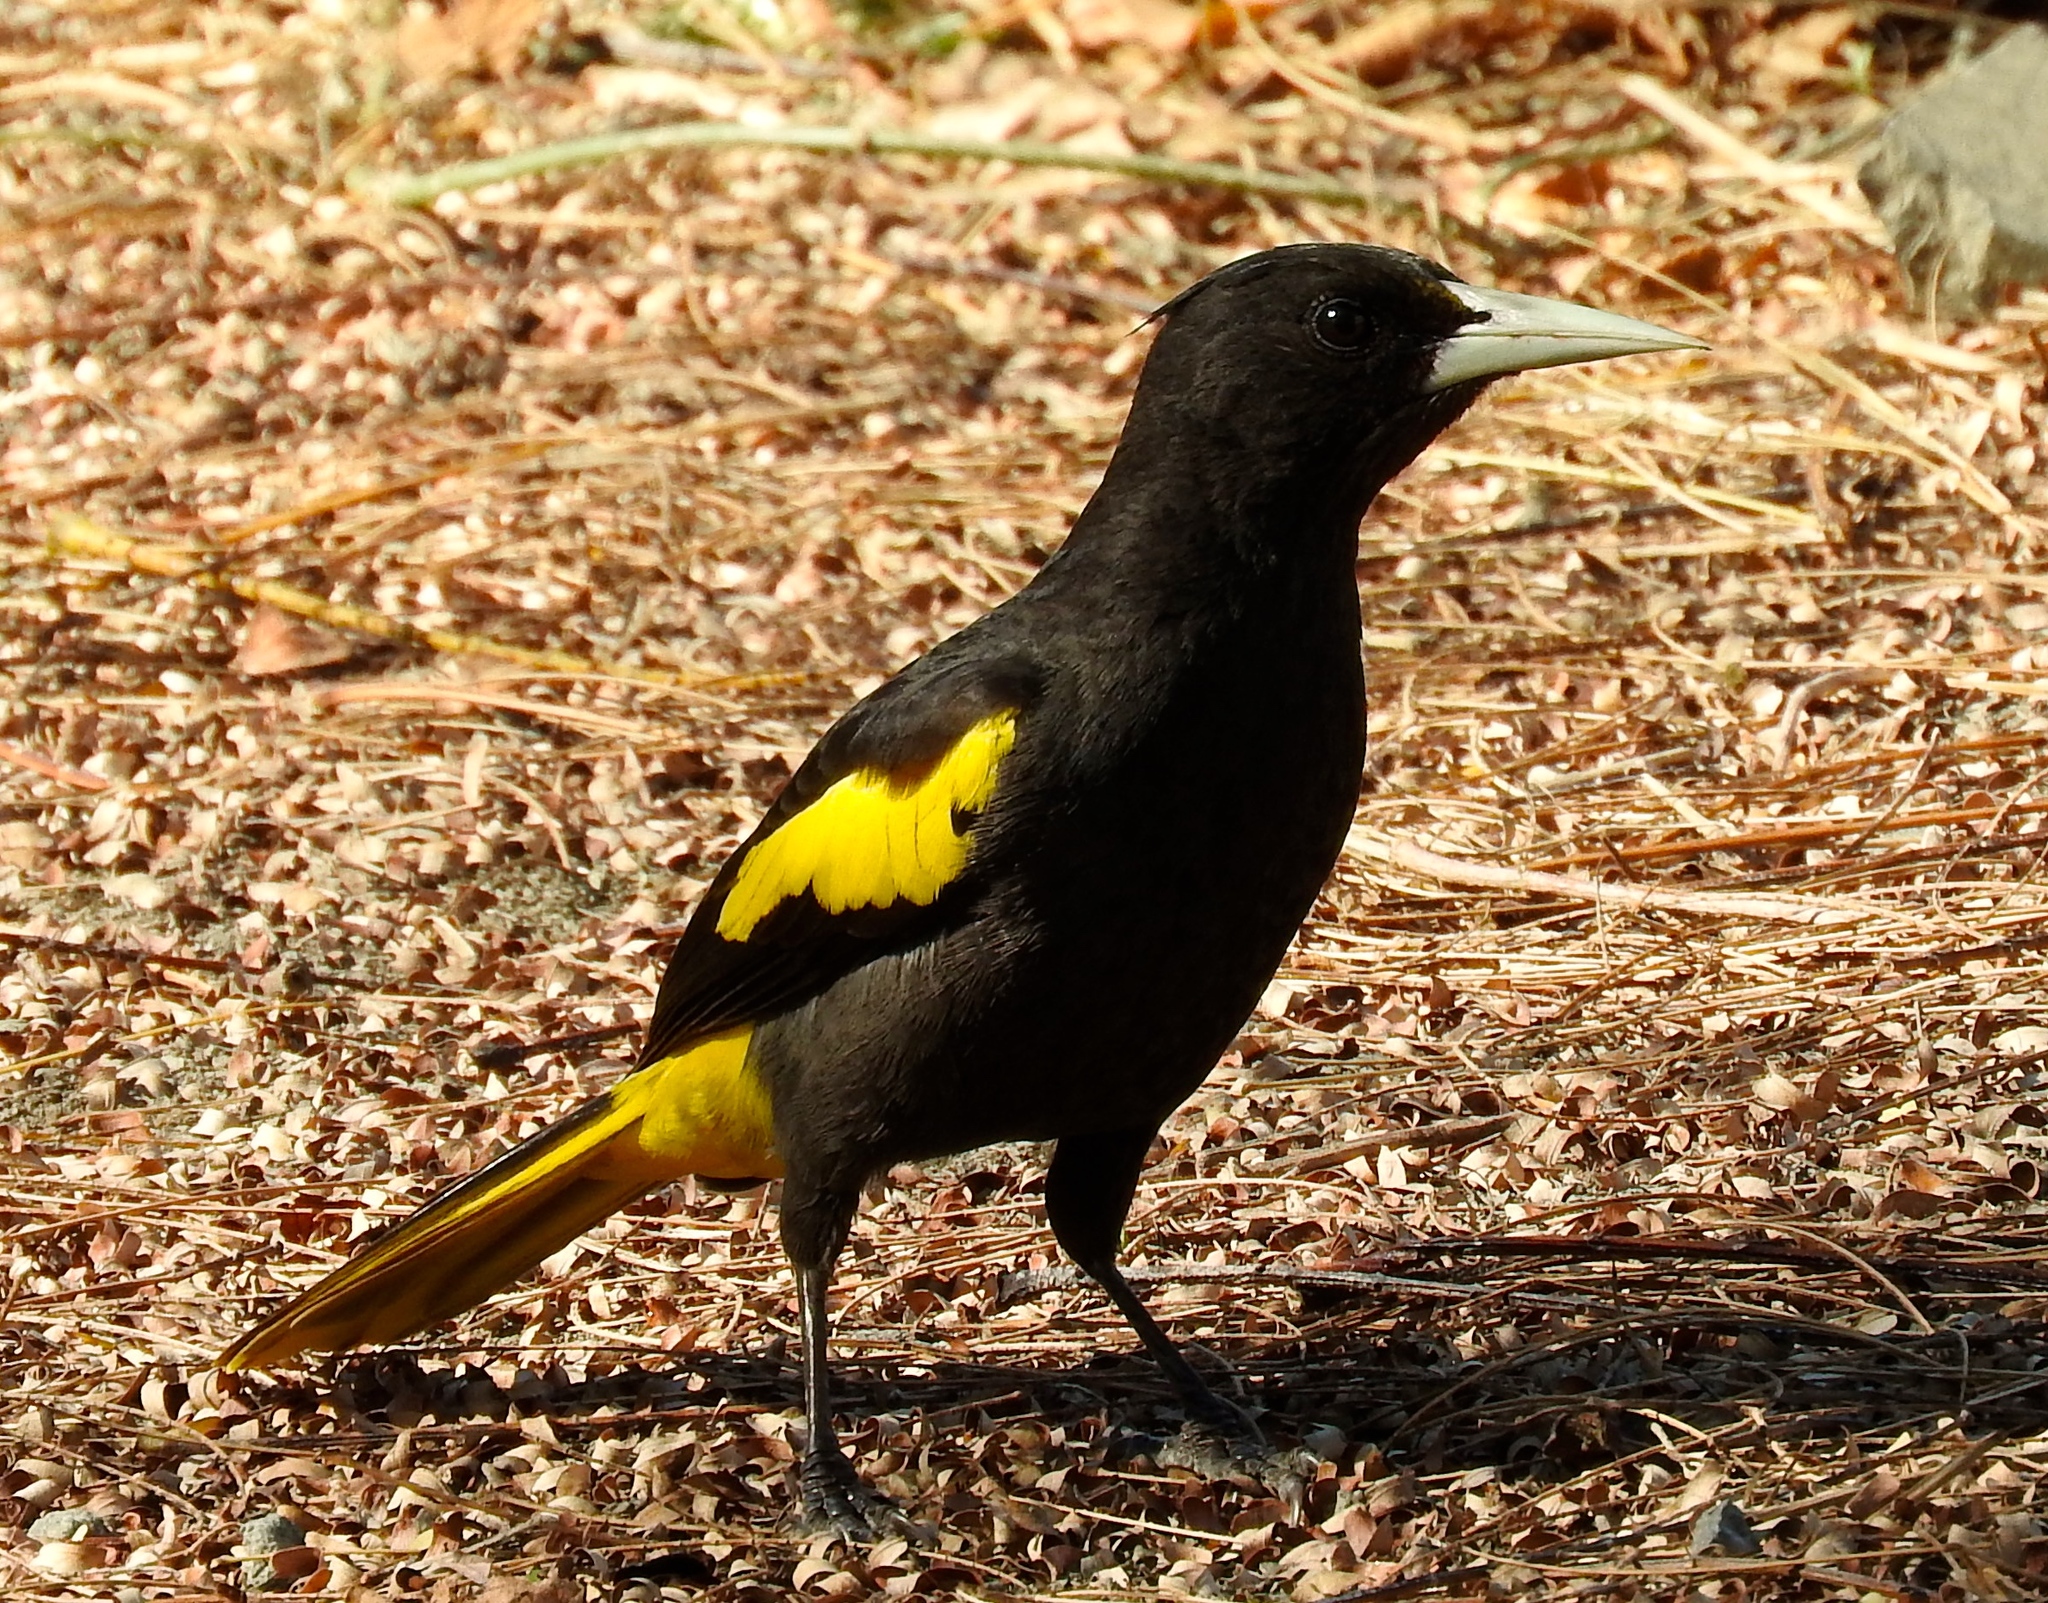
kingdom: Animalia
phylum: Chordata
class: Aves
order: Passeriformes
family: Icteridae
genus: Cacicus
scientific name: Cacicus melanicterus
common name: Yellow-winged cacique
